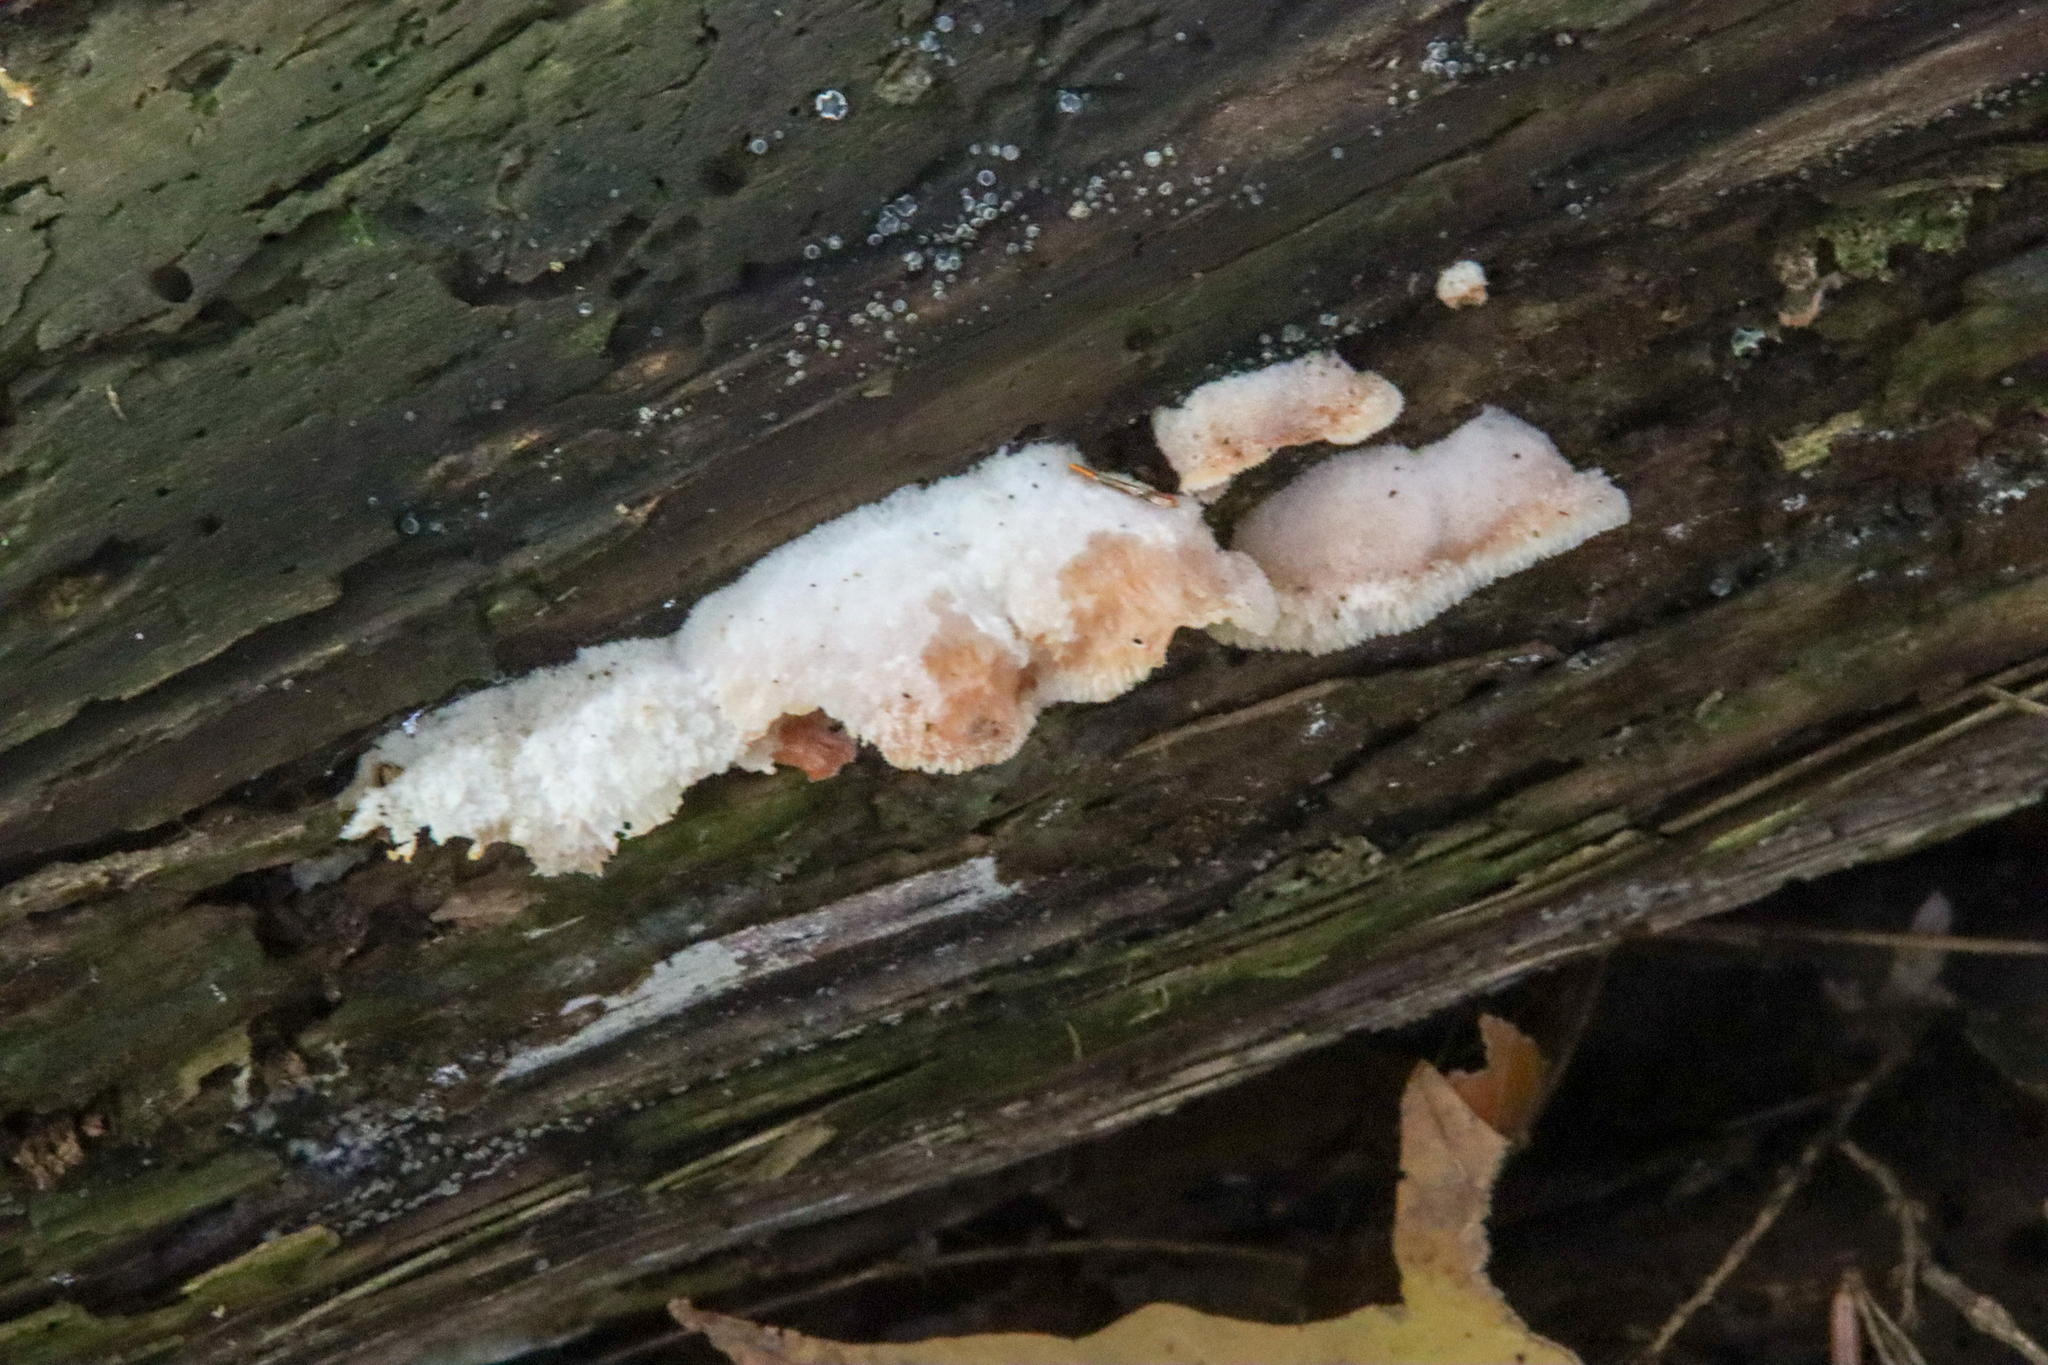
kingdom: Fungi
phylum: Basidiomycota
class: Agaricomycetes
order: Polyporales
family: Meruliaceae
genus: Phlebia
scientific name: Phlebia tremellosa
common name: Jelly rot
